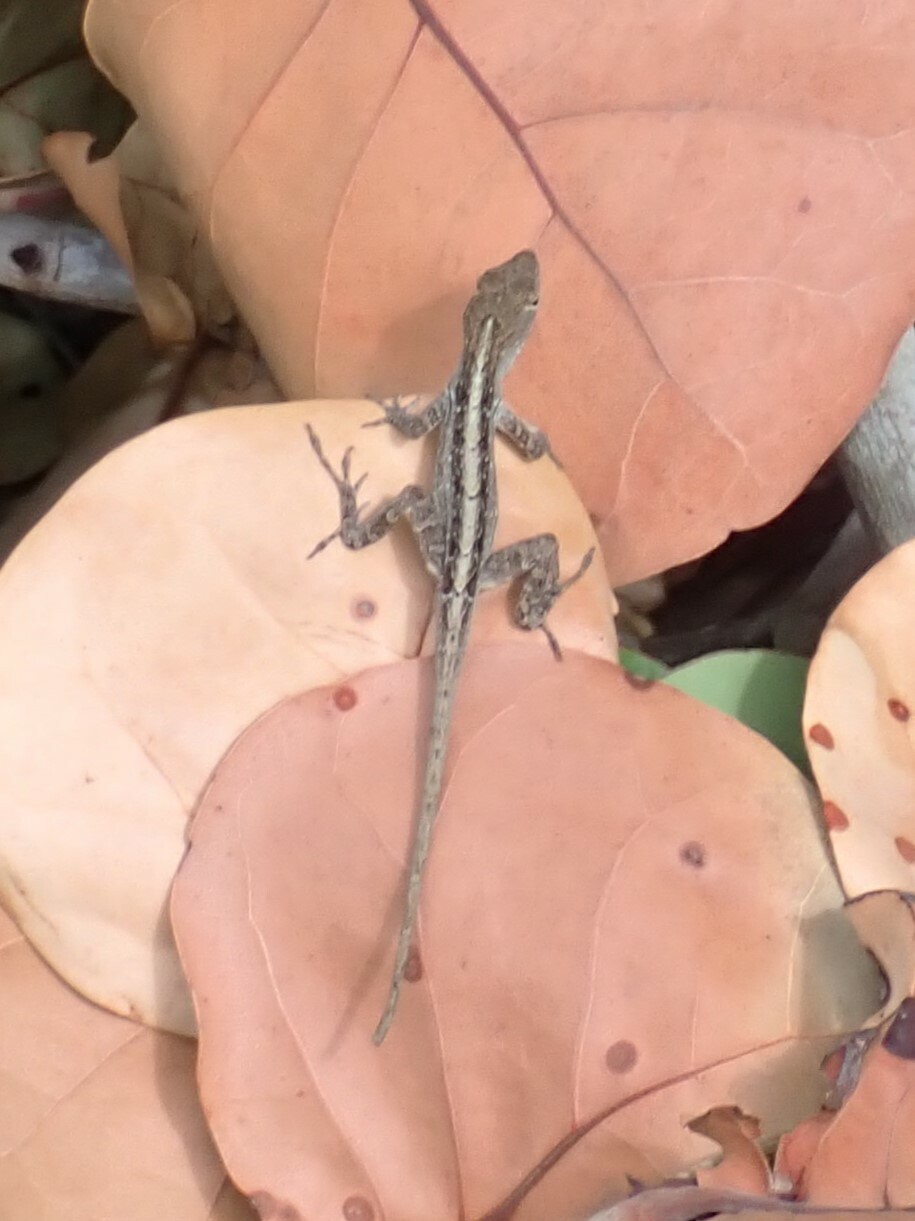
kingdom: Animalia
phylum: Chordata
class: Squamata
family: Dactyloidae
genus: Anolis
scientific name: Anolis sagrei
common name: Brown anole
